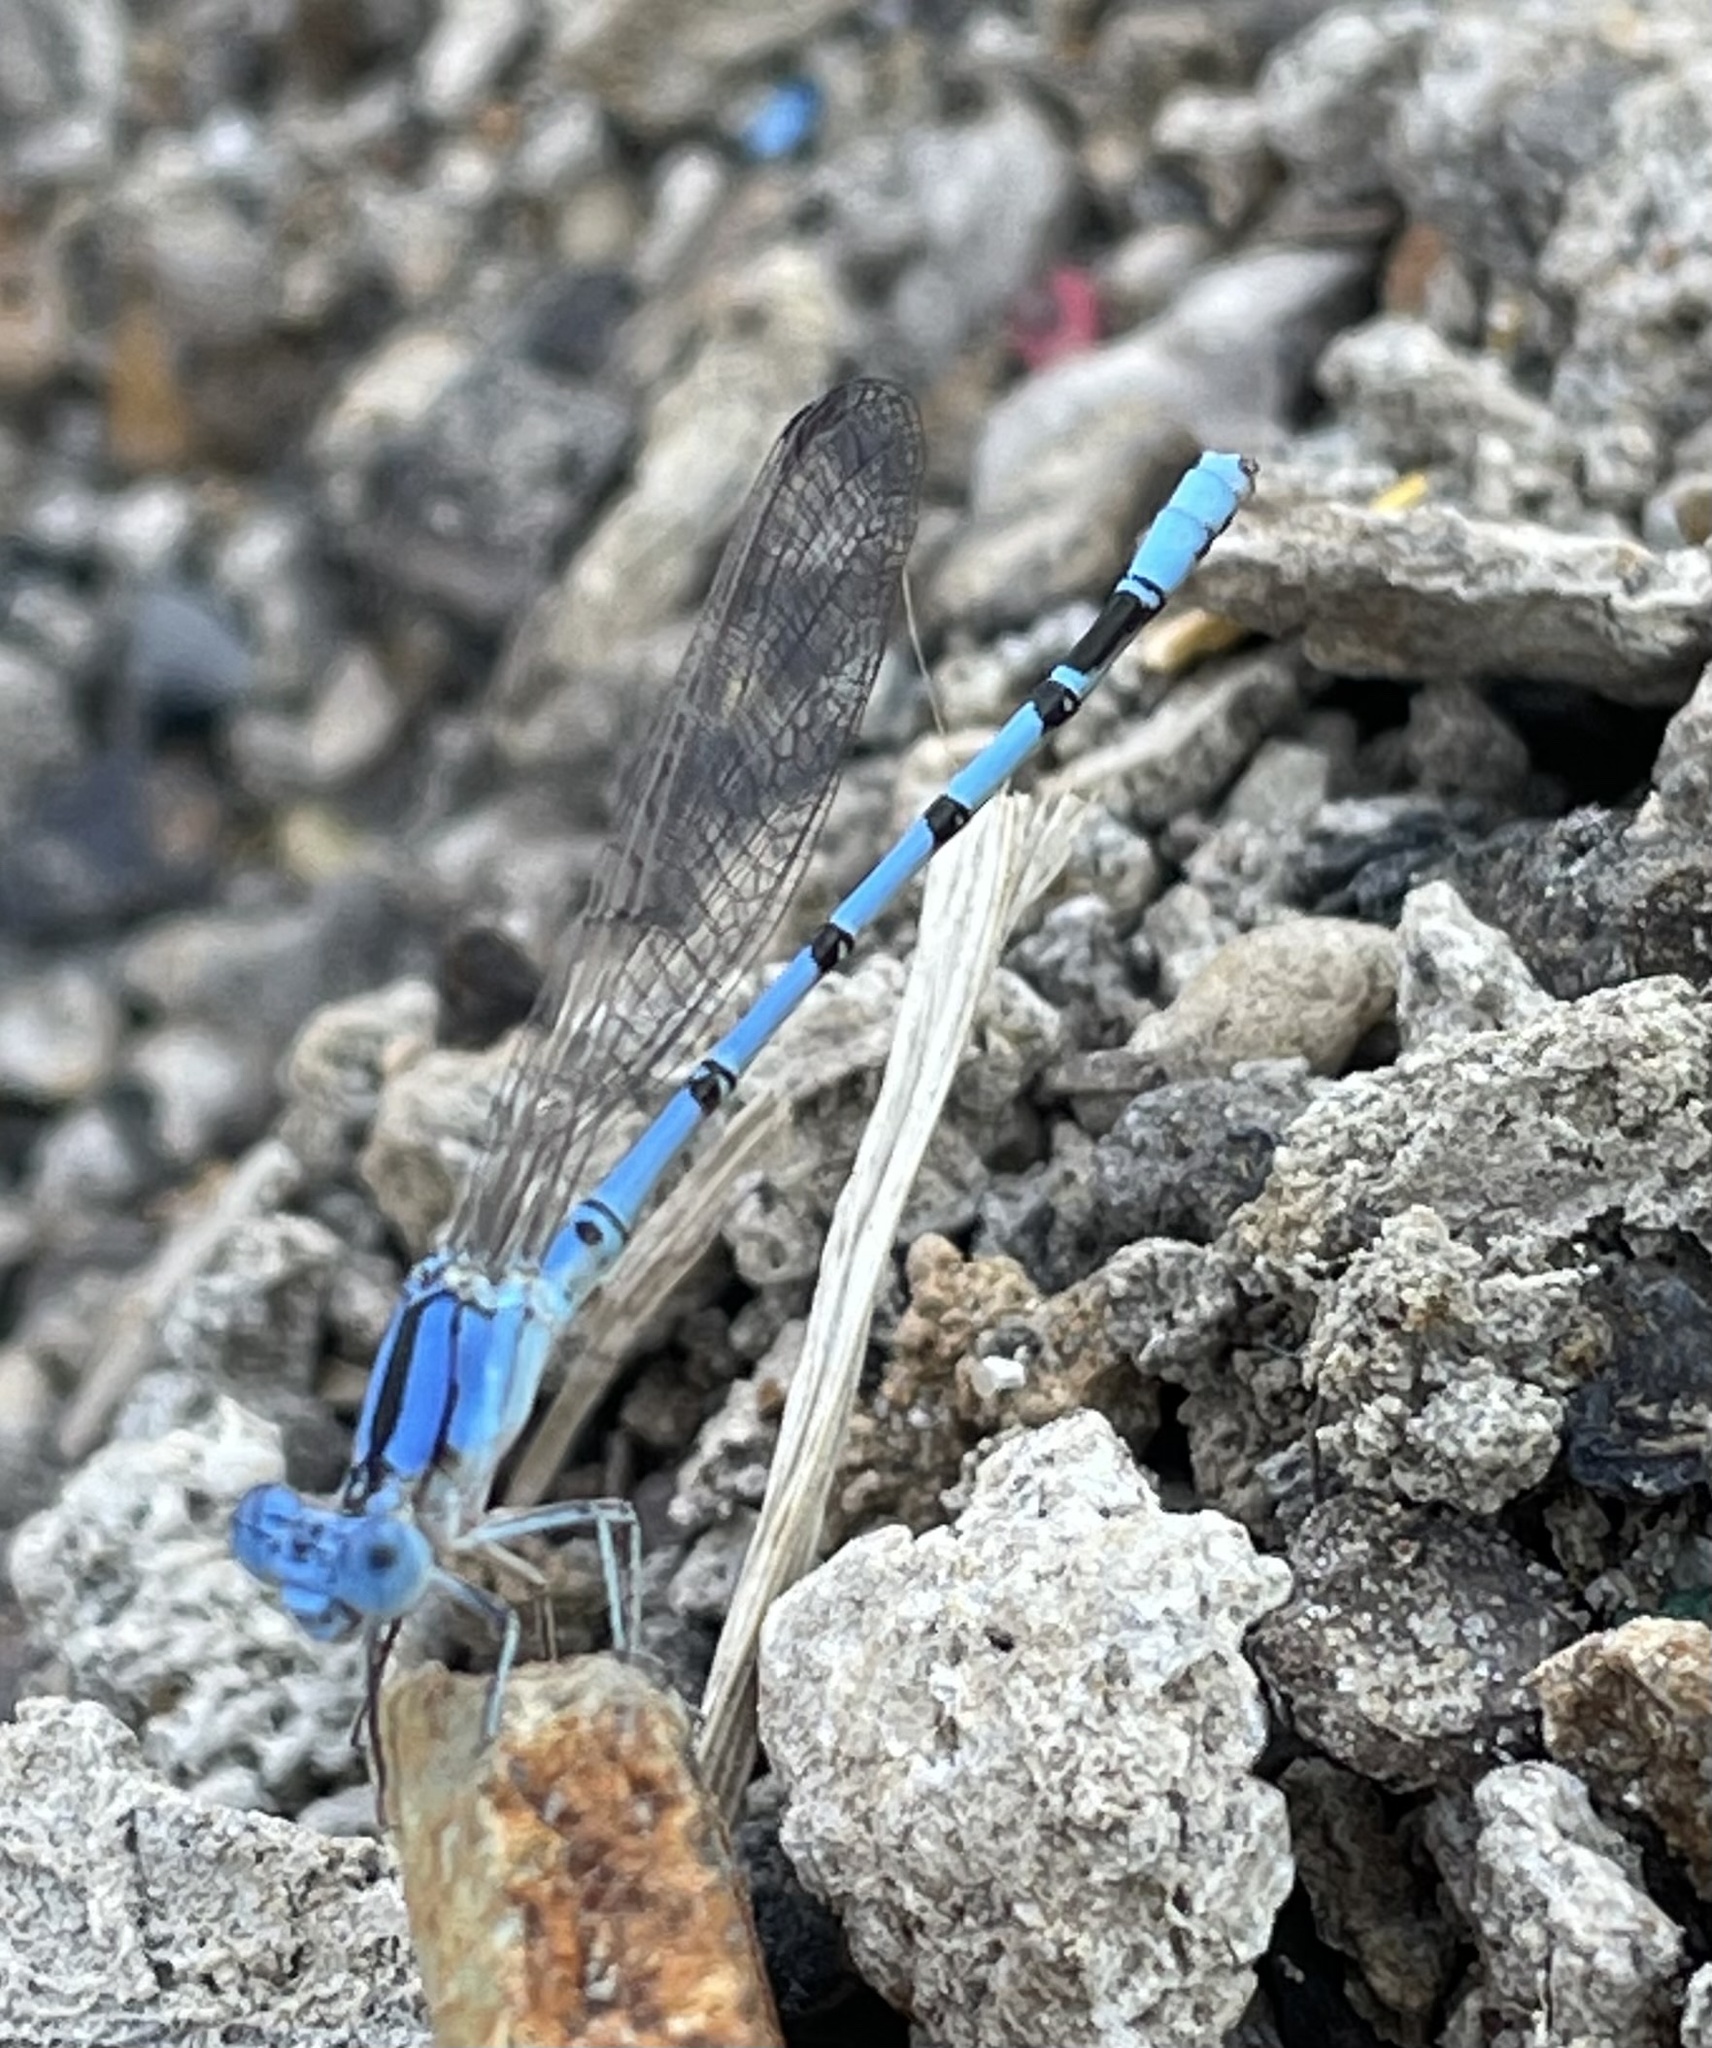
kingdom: Animalia
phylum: Arthropoda
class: Insecta
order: Odonata
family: Coenagrionidae
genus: Argia
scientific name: Argia nahuana
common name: Aztec dancer
